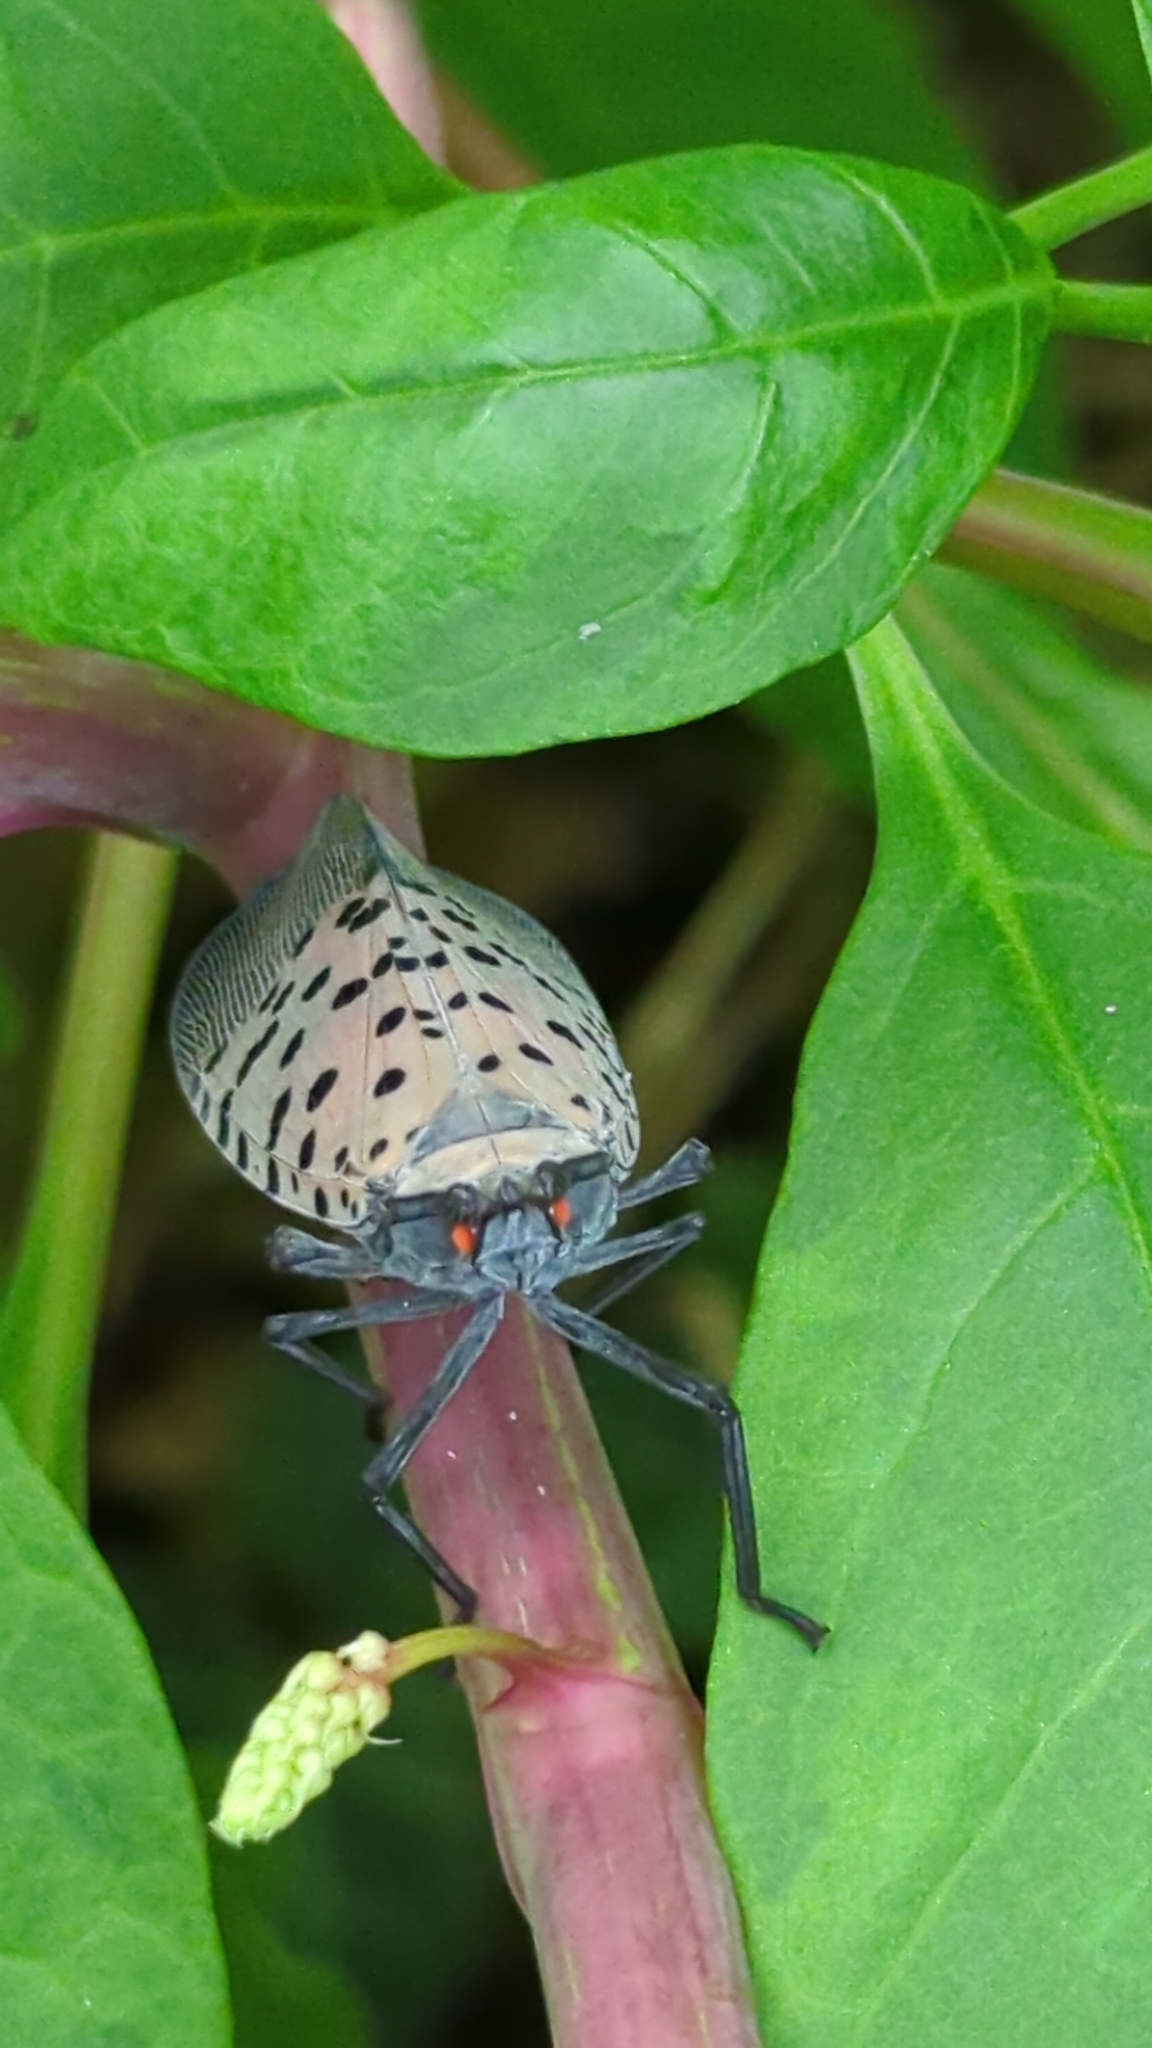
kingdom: Animalia
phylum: Arthropoda
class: Insecta
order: Hemiptera
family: Fulgoridae
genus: Lycorma
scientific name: Lycorma delicatula
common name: Spotted lanternfly
